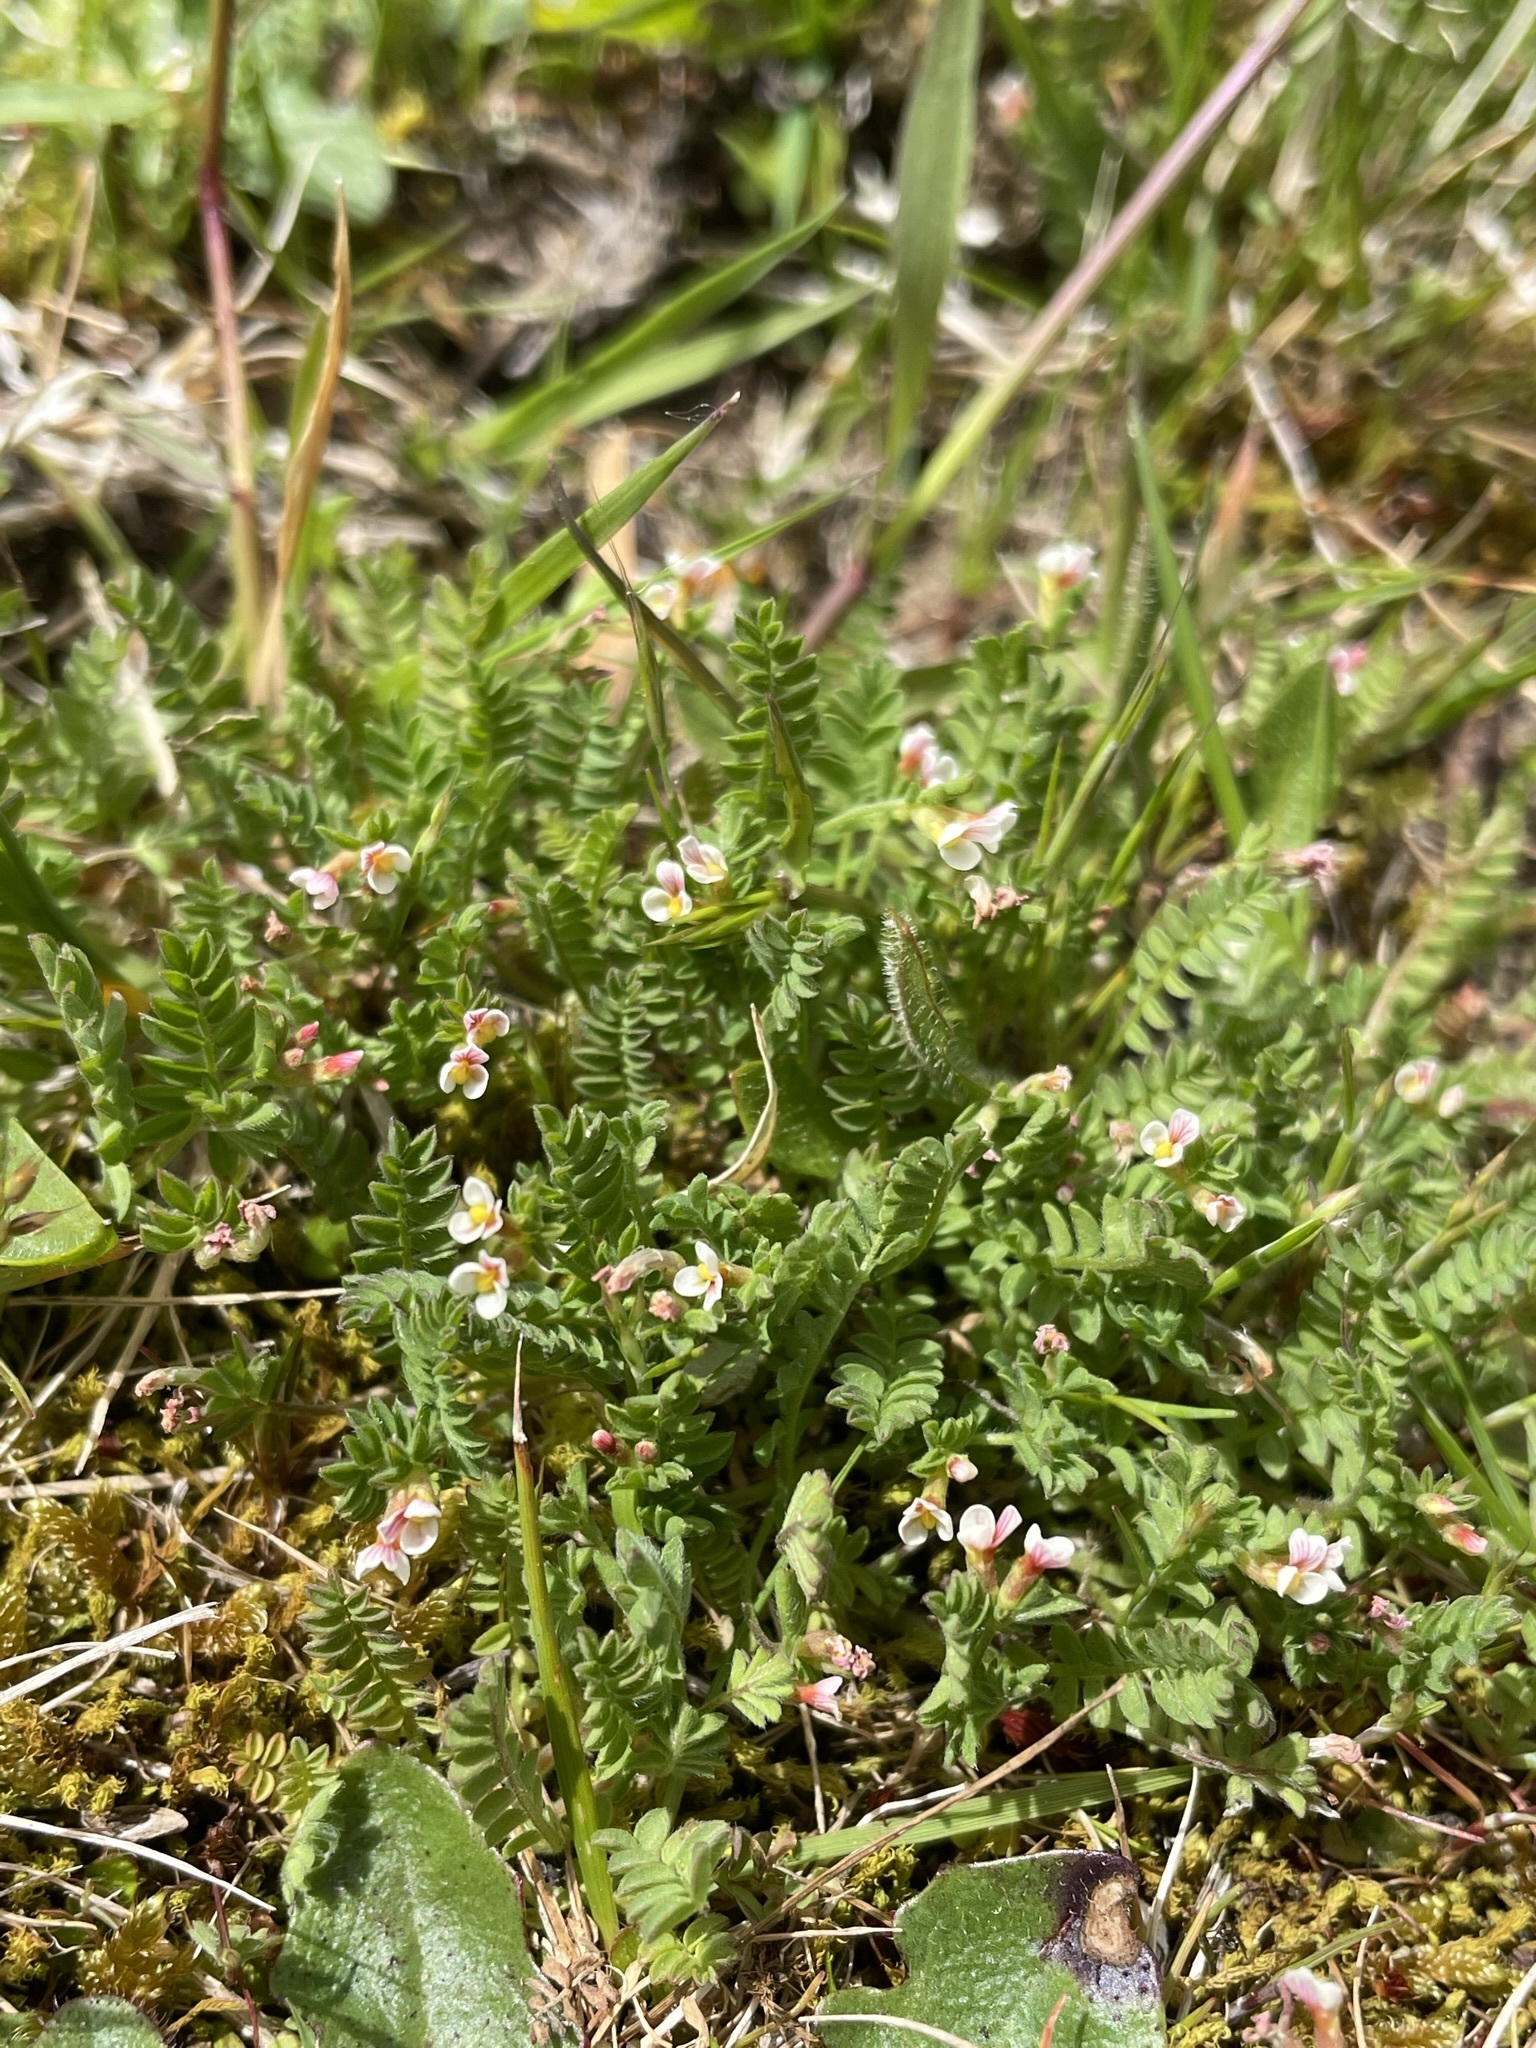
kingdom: Plantae
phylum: Tracheophyta
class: Magnoliopsida
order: Fabales
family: Fabaceae
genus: Ornithopus
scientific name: Ornithopus perpusillus
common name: Bird's-foot
